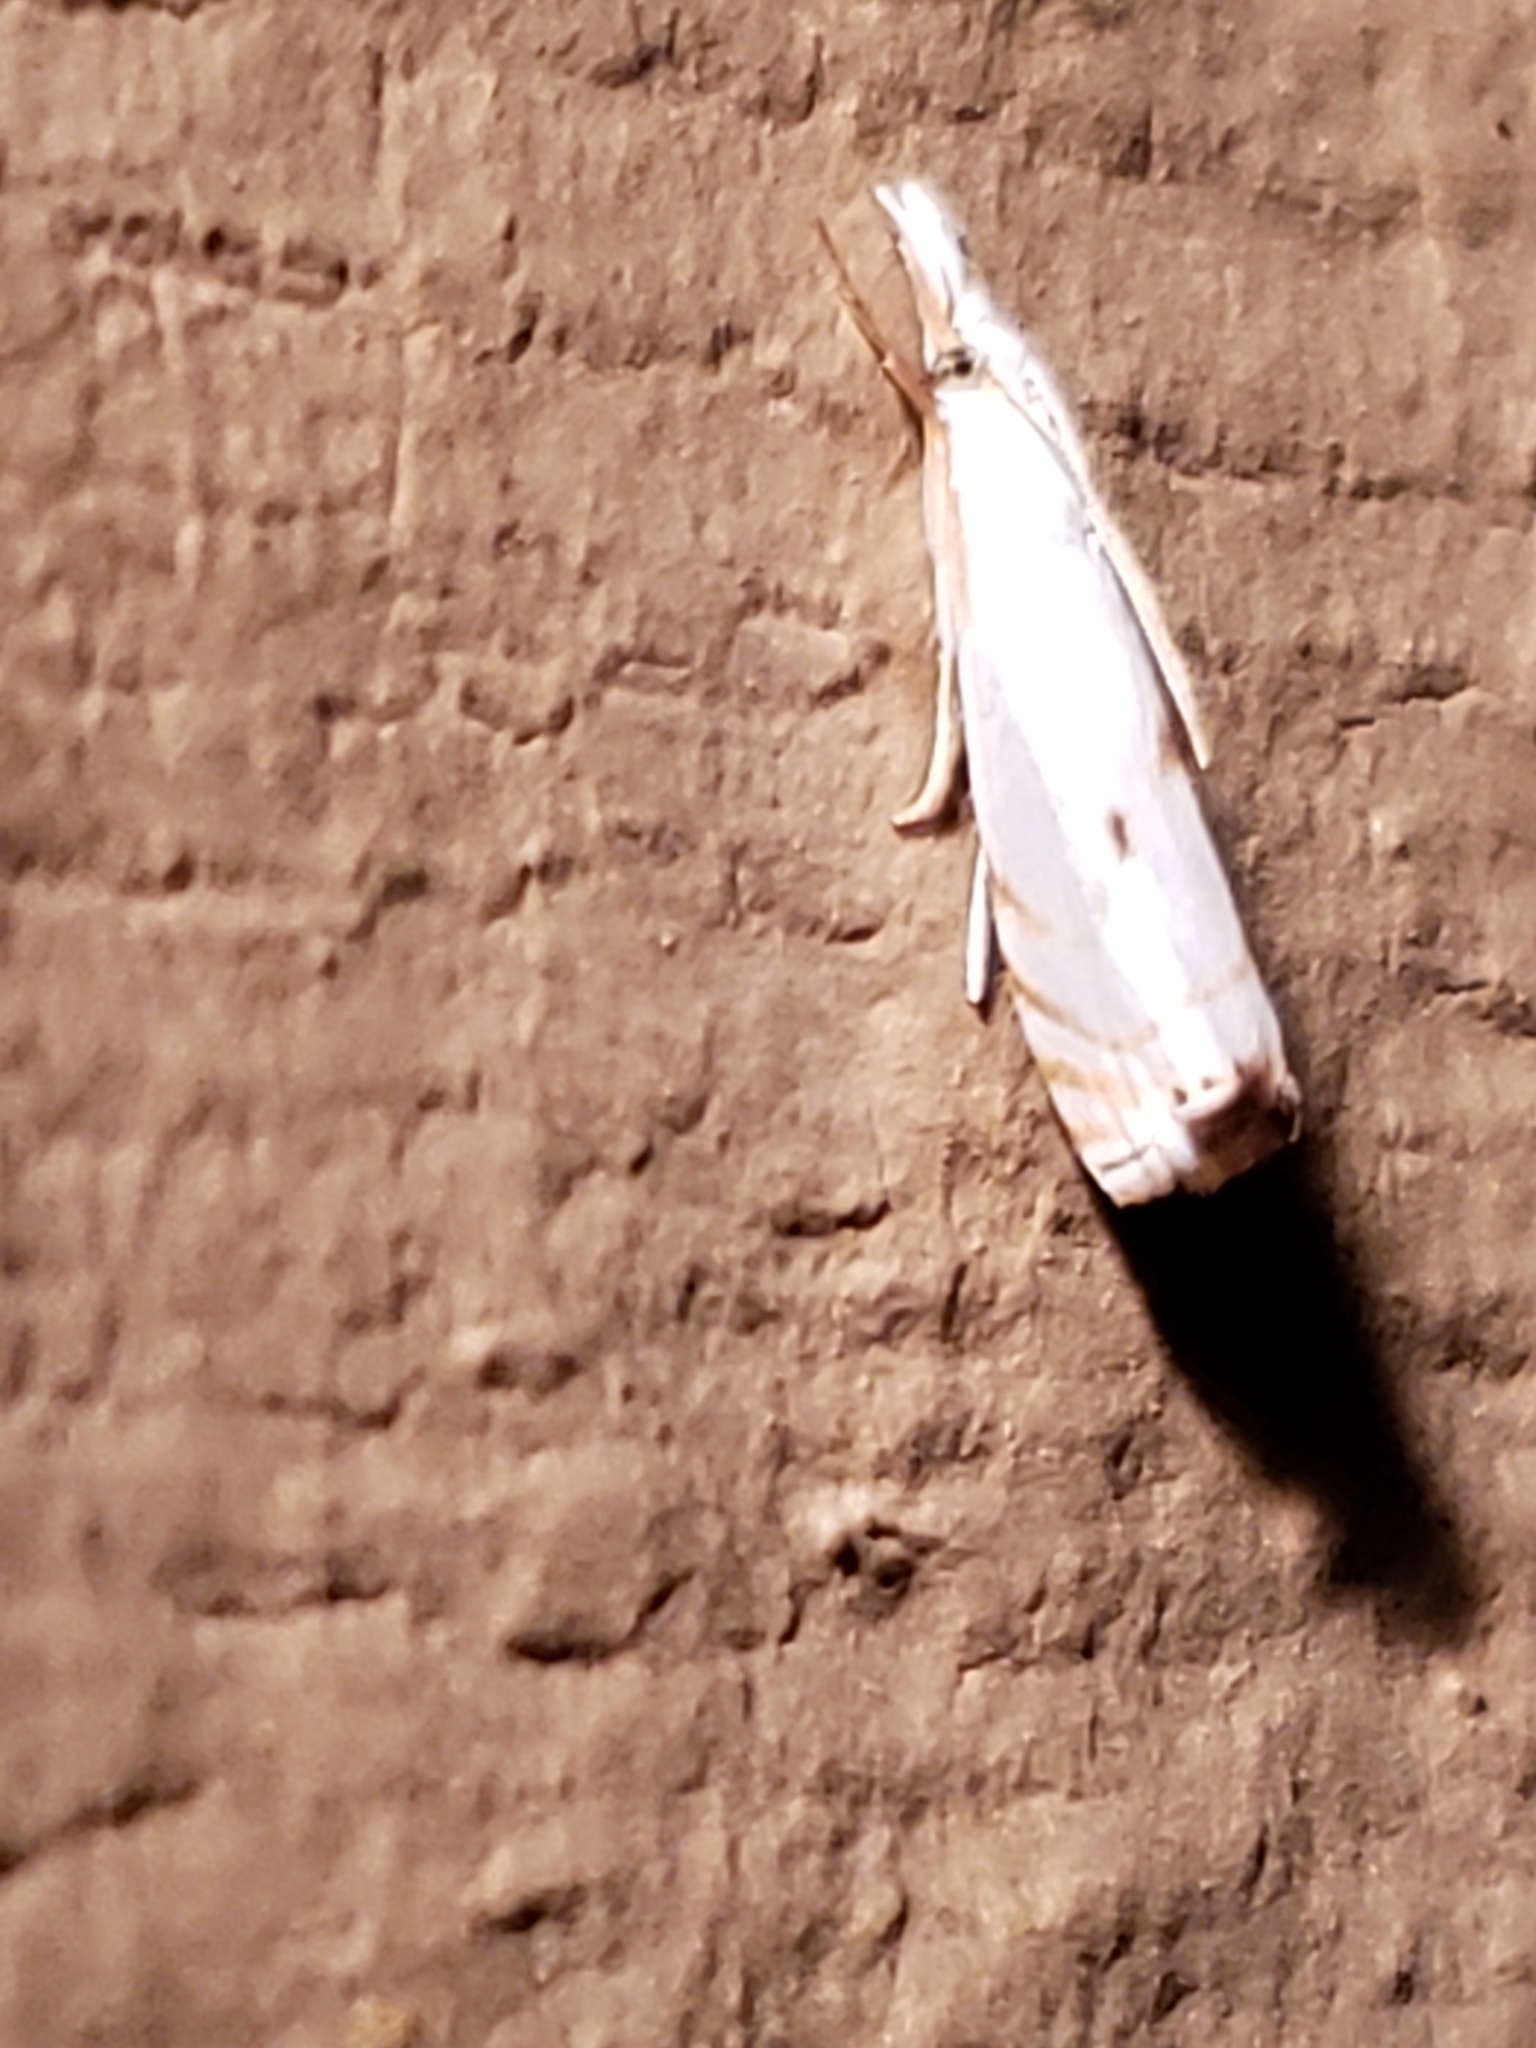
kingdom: Animalia
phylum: Arthropoda
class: Insecta
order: Lepidoptera
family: Crambidae
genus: Microcrambus
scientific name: Microcrambus biguttellus
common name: Gold-stripe grass-veneer moth
